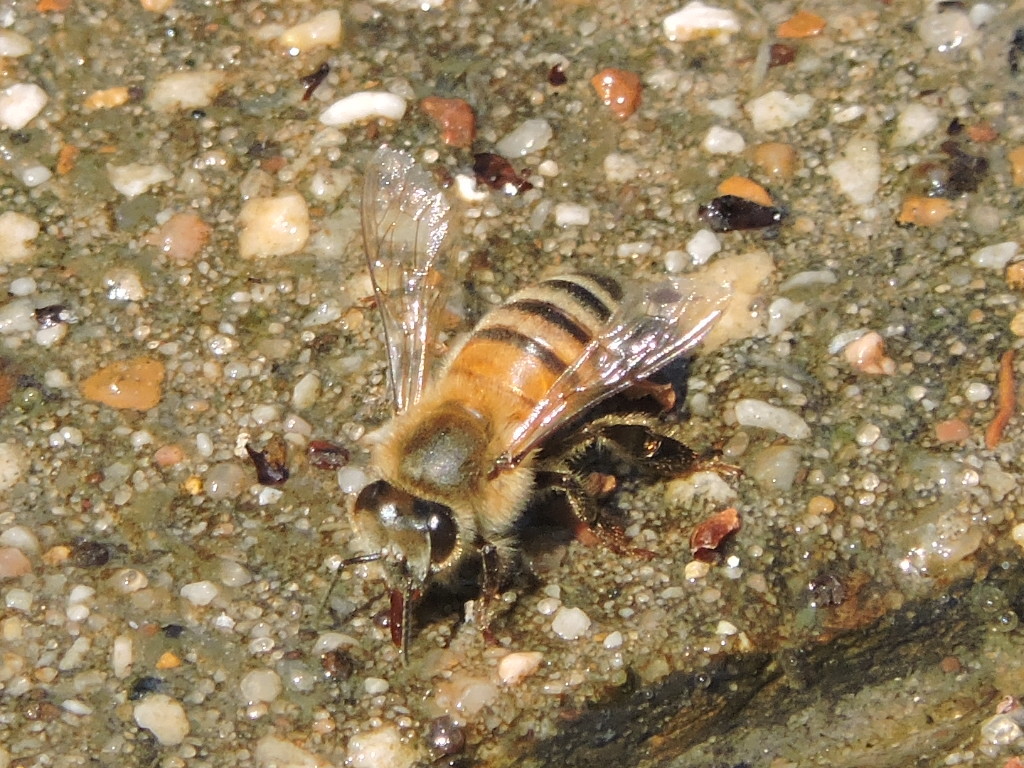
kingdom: Animalia
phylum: Arthropoda
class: Insecta
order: Hymenoptera
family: Apidae
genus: Apis
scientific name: Apis mellifera
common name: Honey bee
